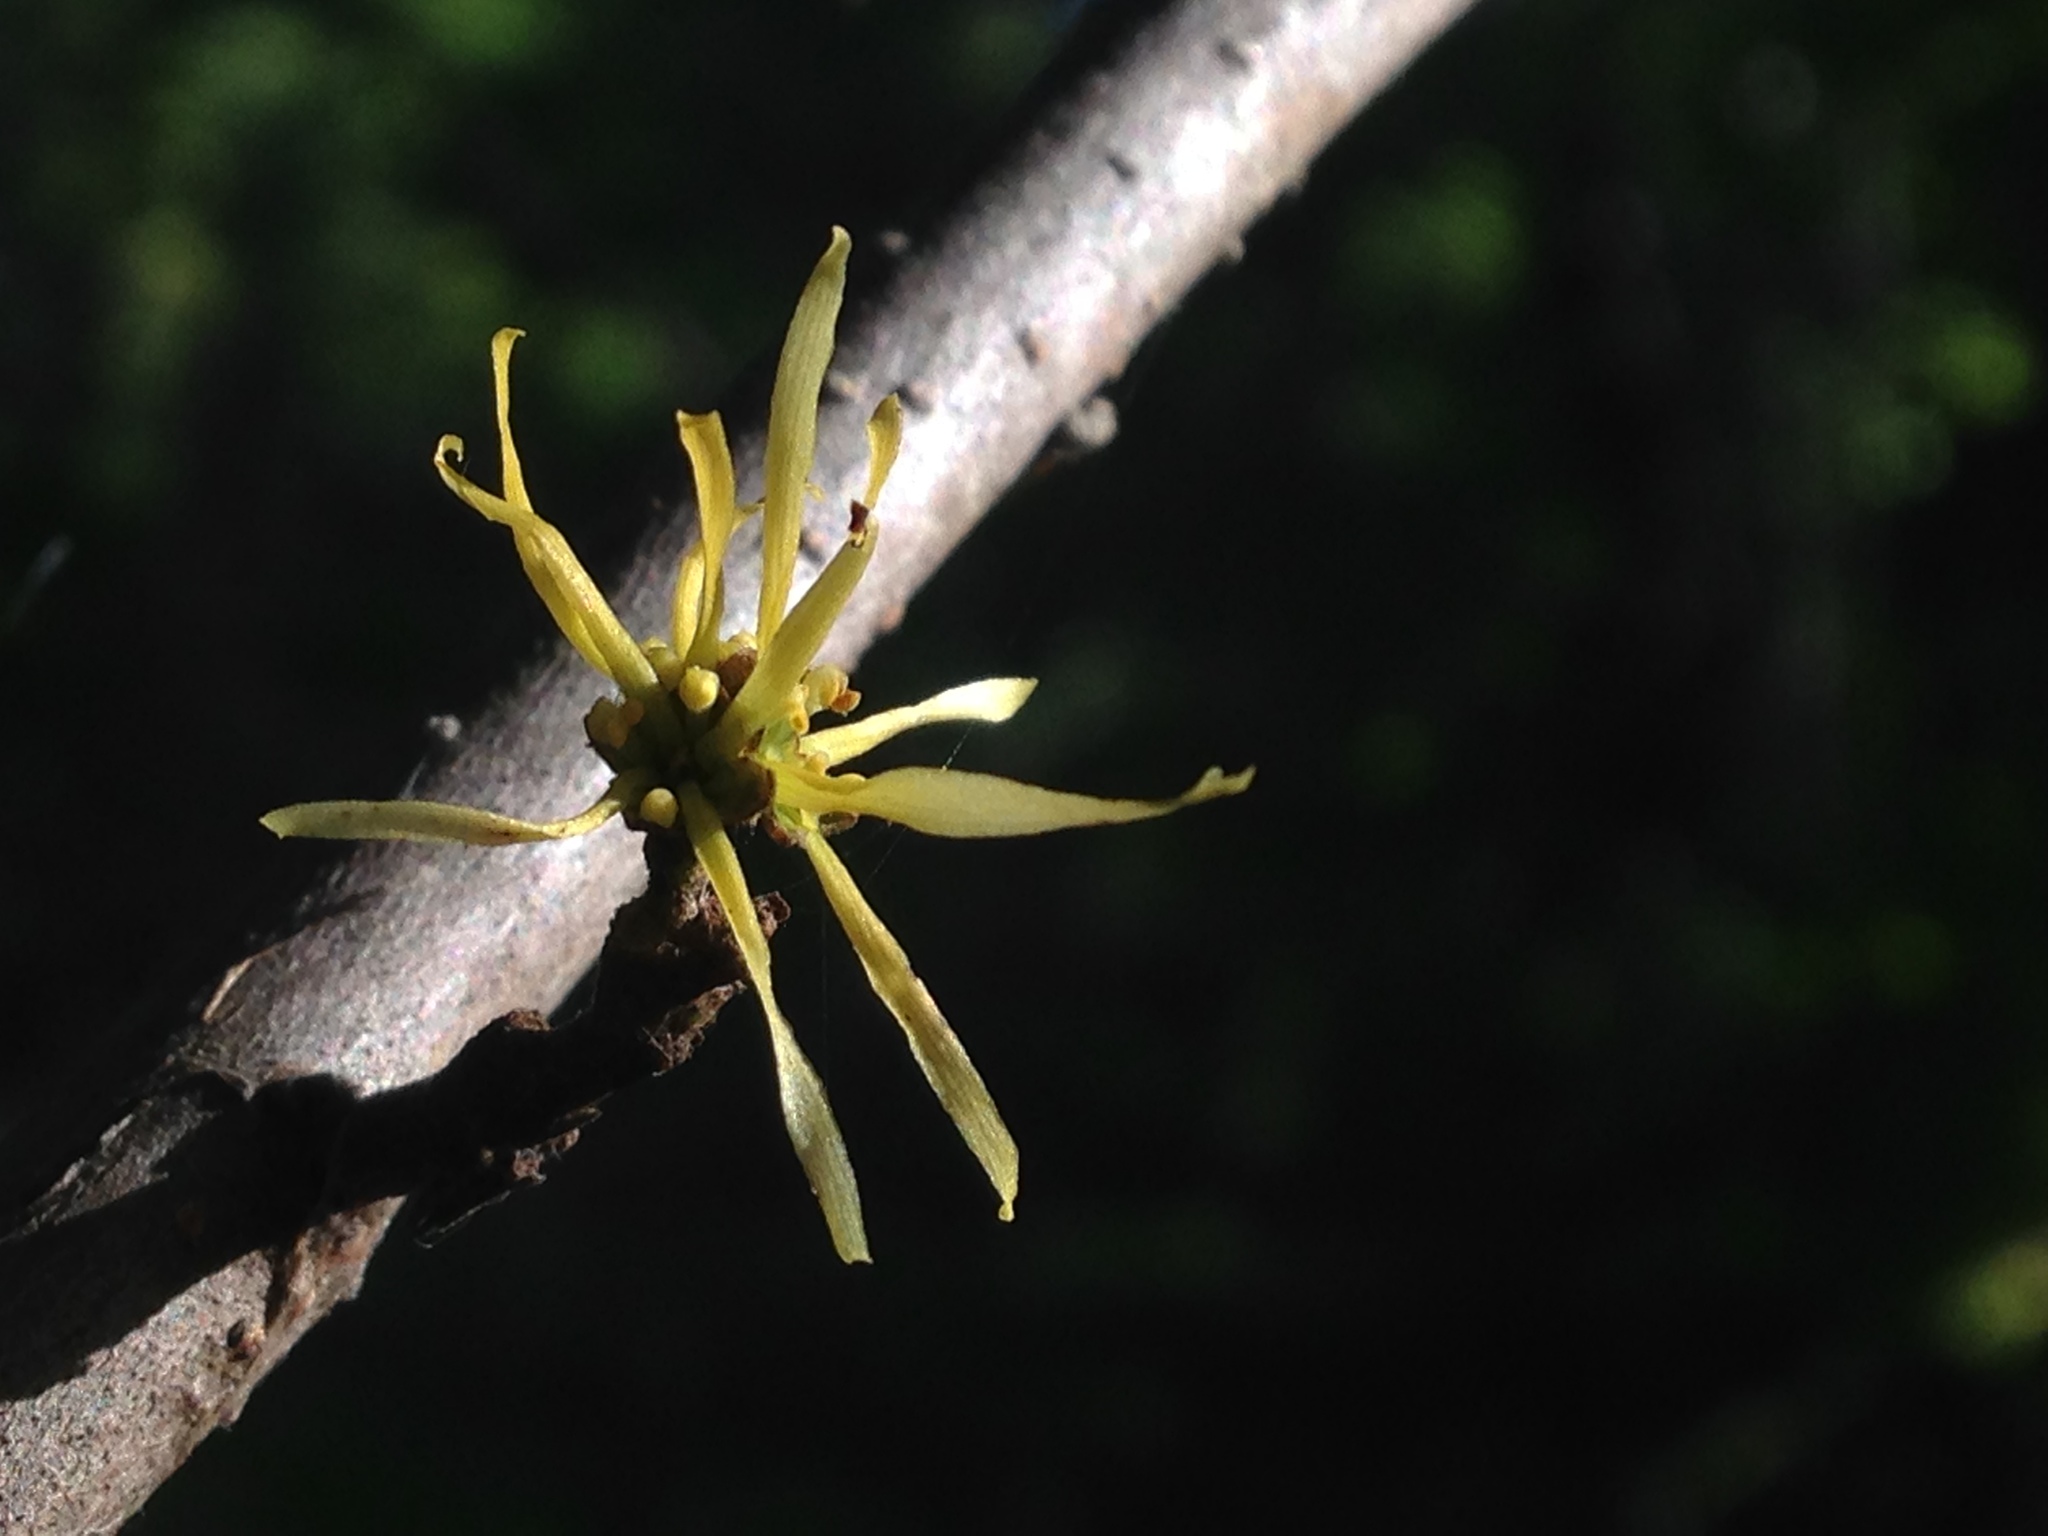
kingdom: Plantae
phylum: Tracheophyta
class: Magnoliopsida
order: Saxifragales
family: Hamamelidaceae
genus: Hamamelis
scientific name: Hamamelis virginiana
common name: Witch-hazel
